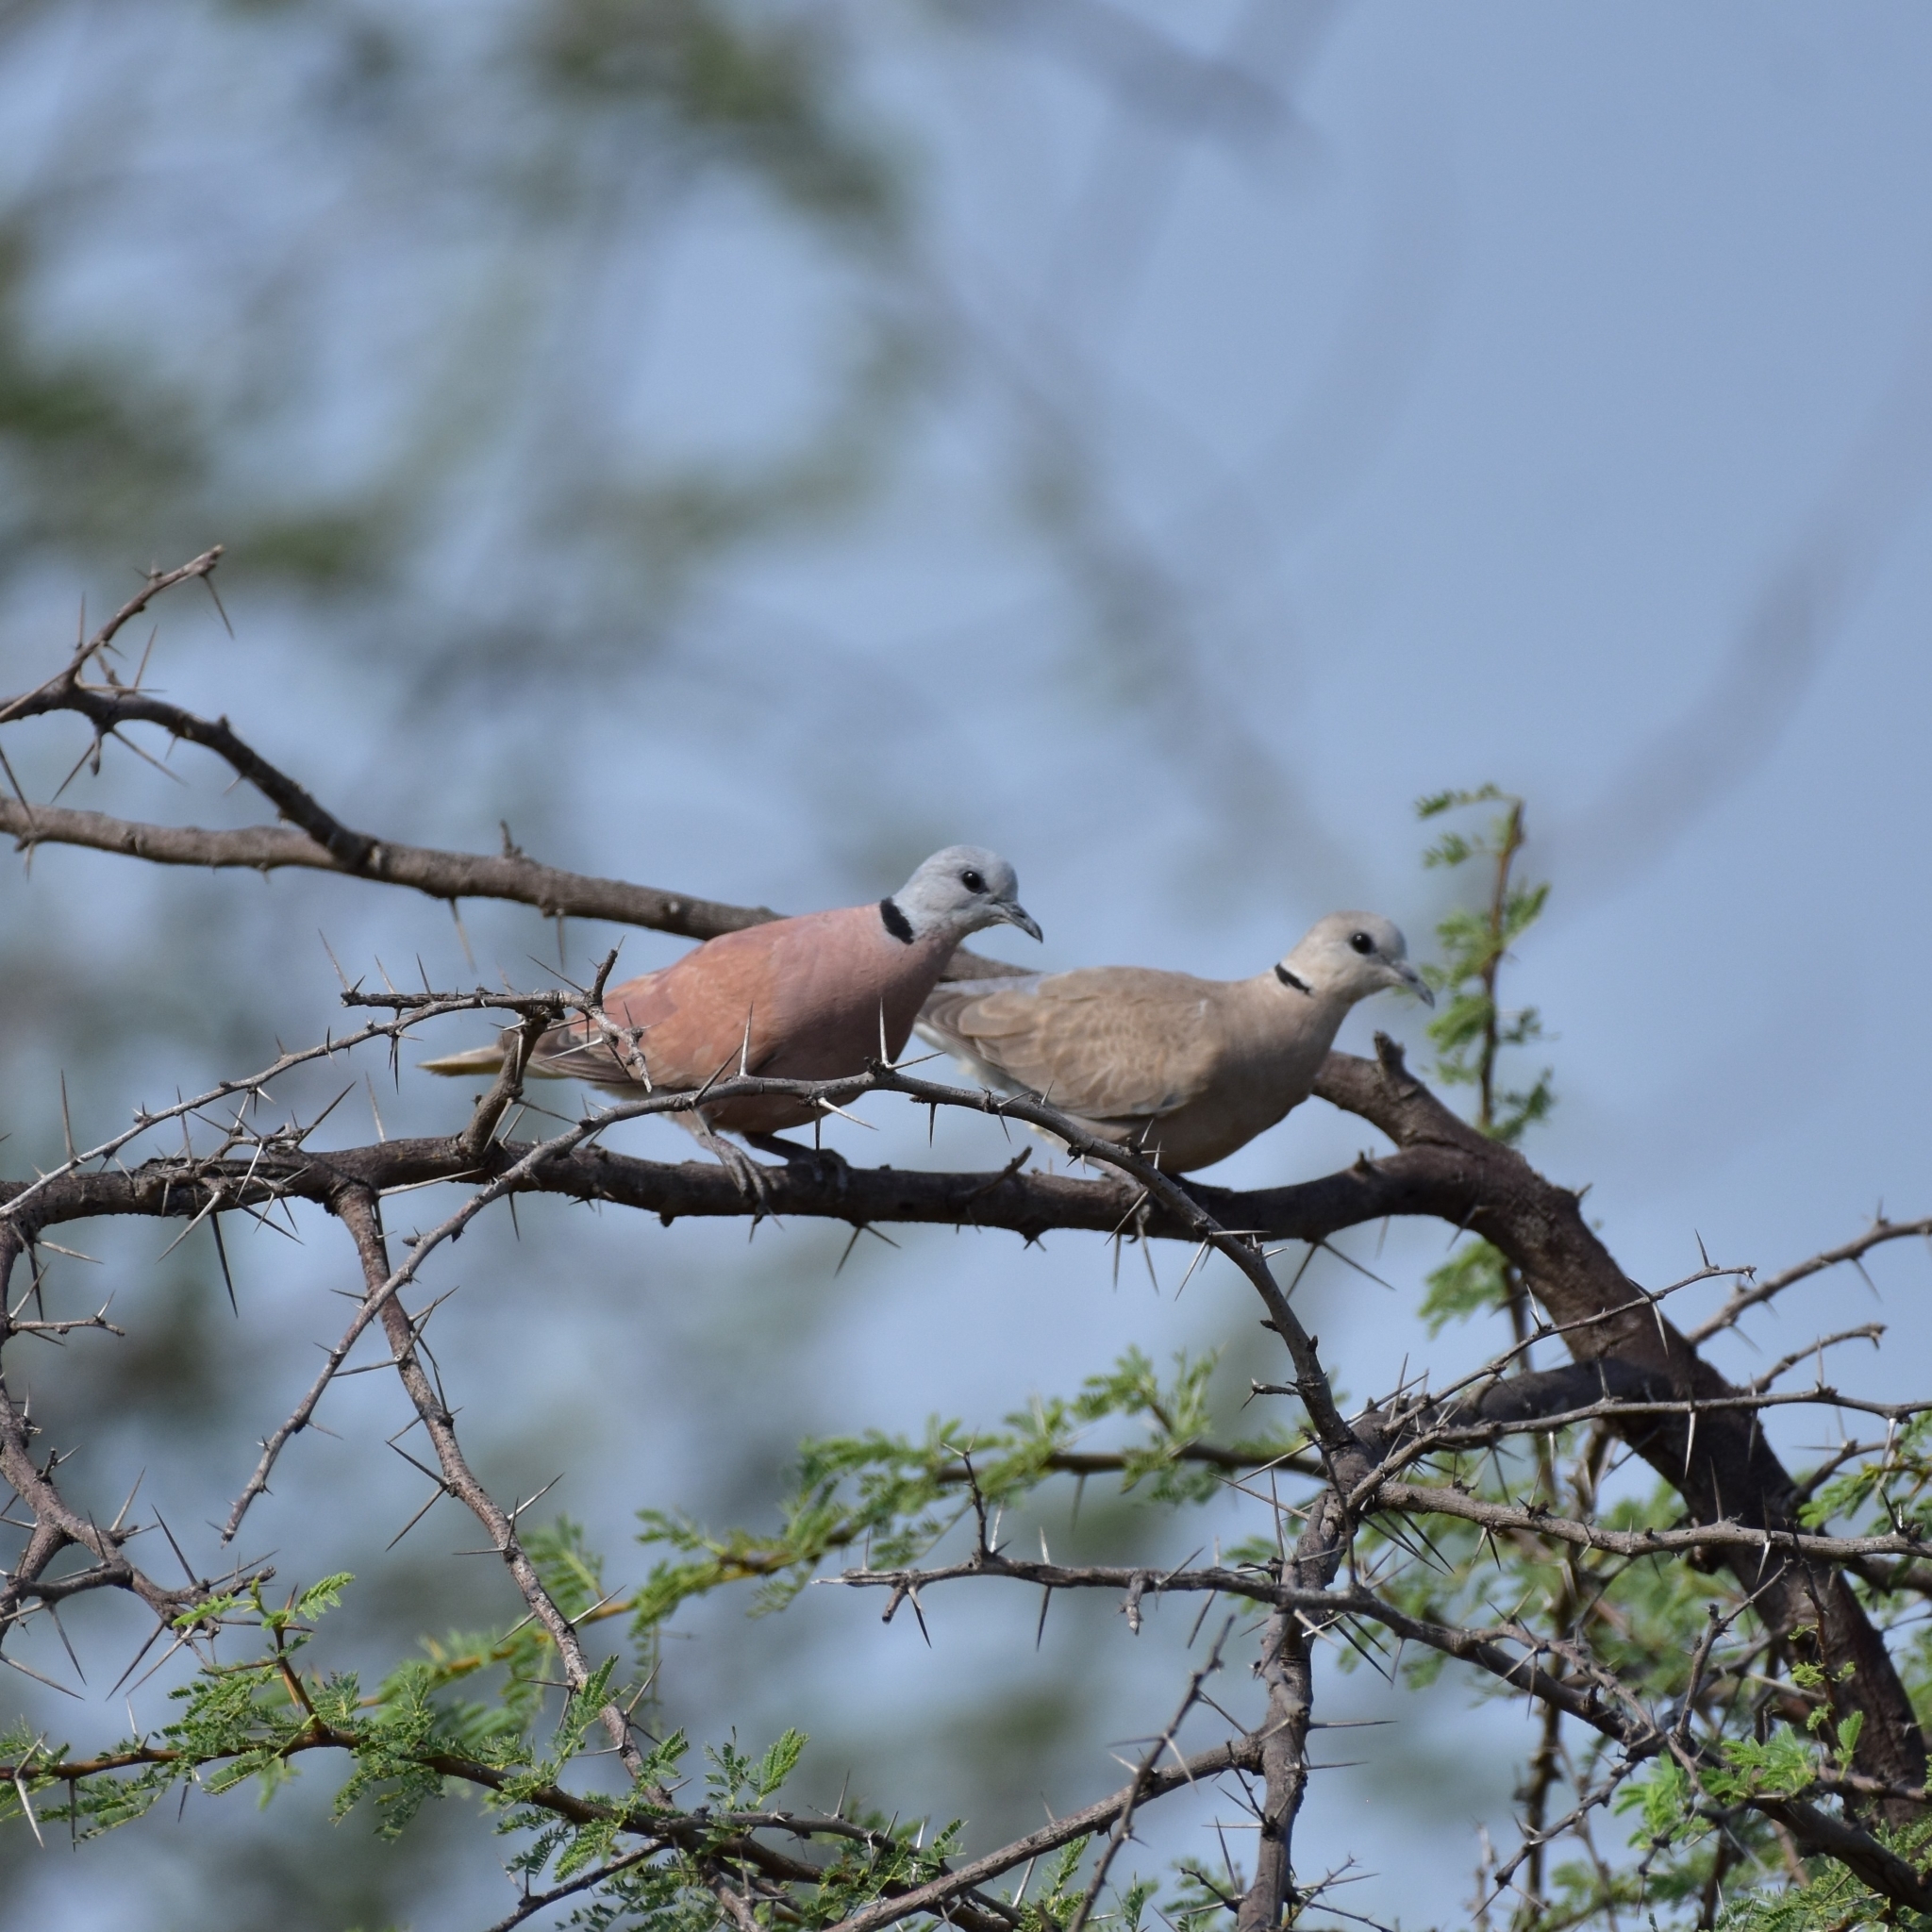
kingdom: Animalia
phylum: Chordata
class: Aves
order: Columbiformes
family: Columbidae
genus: Streptopelia
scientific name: Streptopelia tranquebarica
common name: Red turtle dove
